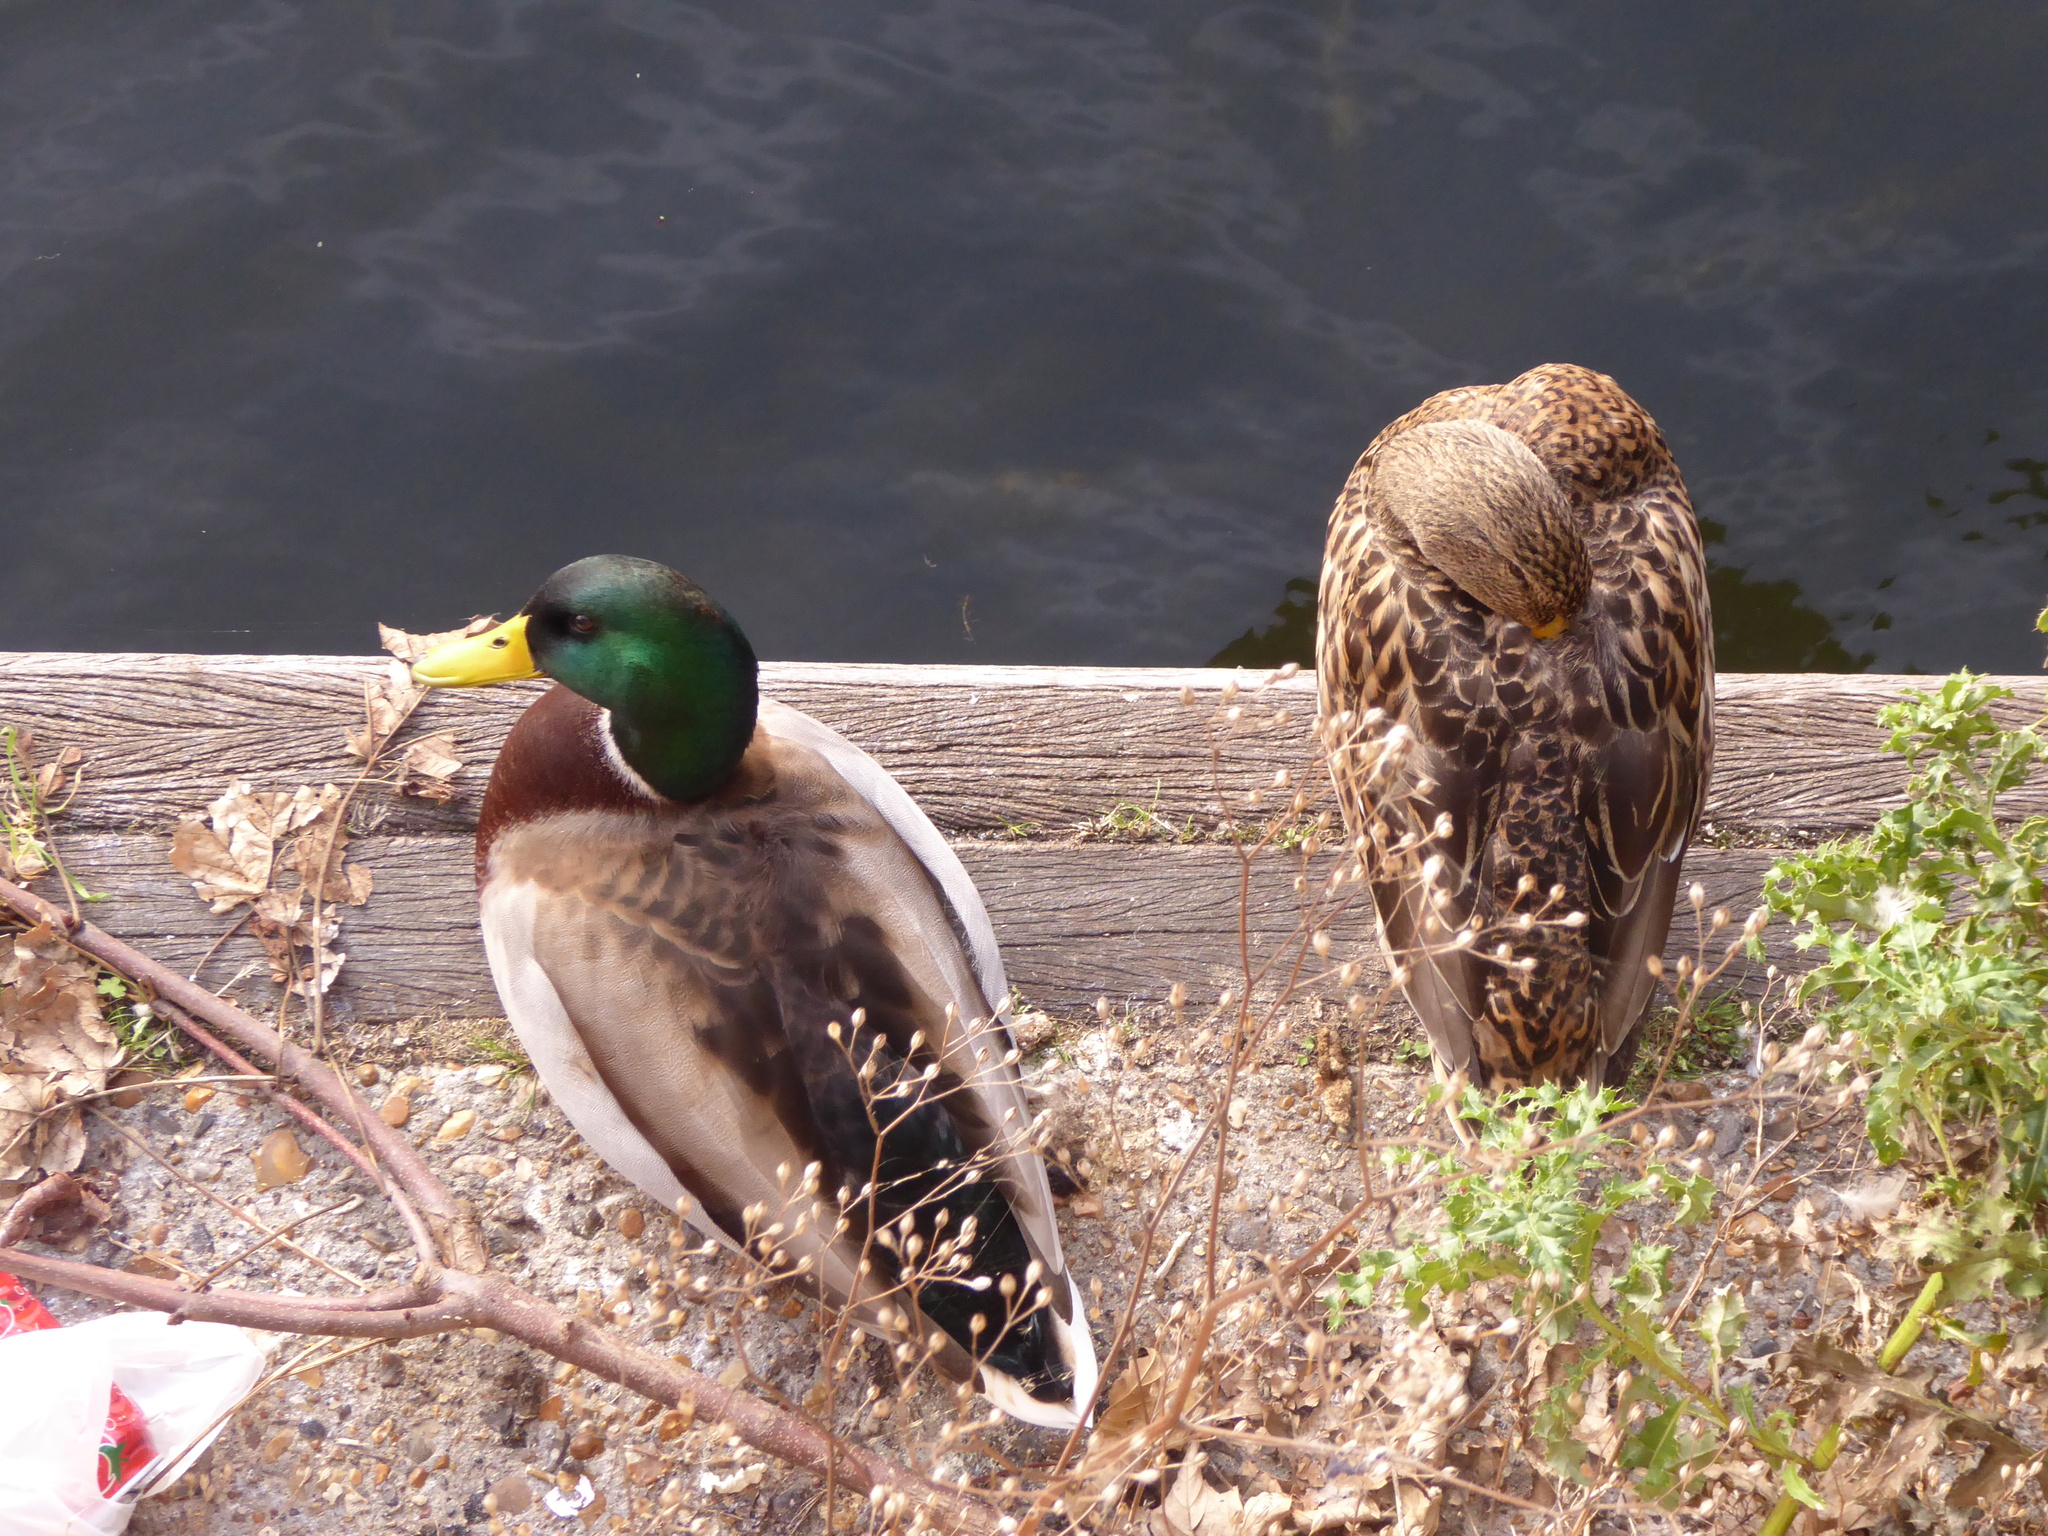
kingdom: Animalia
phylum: Chordata
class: Aves
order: Anseriformes
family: Anatidae
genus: Anas
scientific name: Anas platyrhynchos
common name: Mallard
